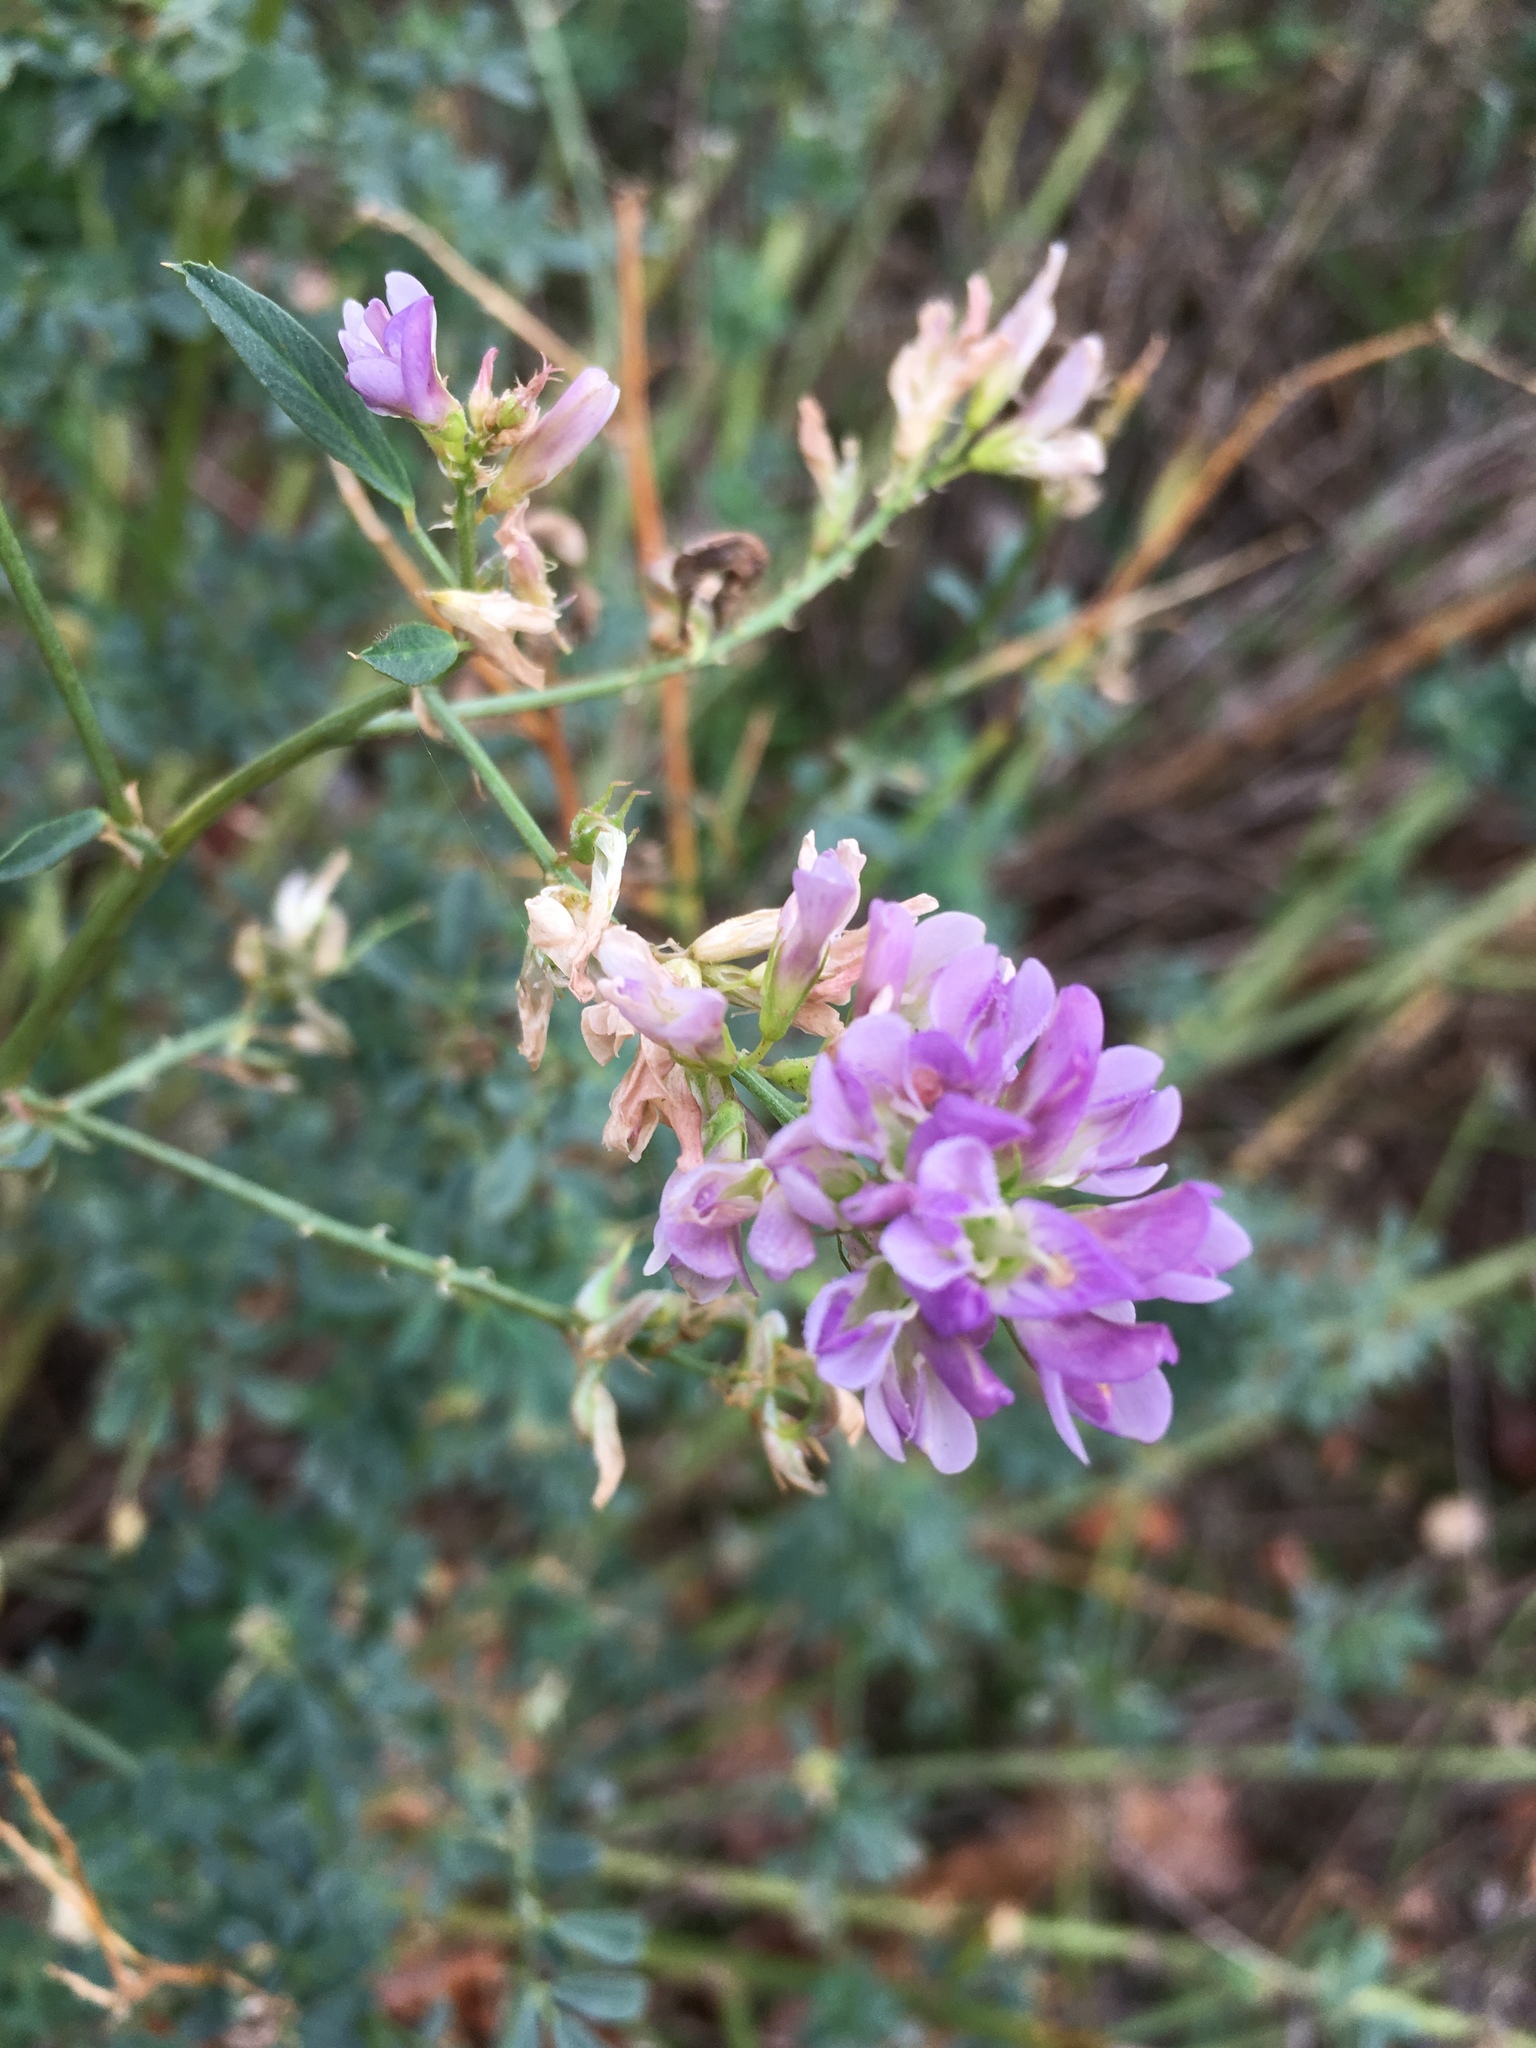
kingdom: Plantae
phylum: Tracheophyta
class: Magnoliopsida
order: Fabales
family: Fabaceae
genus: Medicago
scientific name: Medicago sativa
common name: Alfalfa
